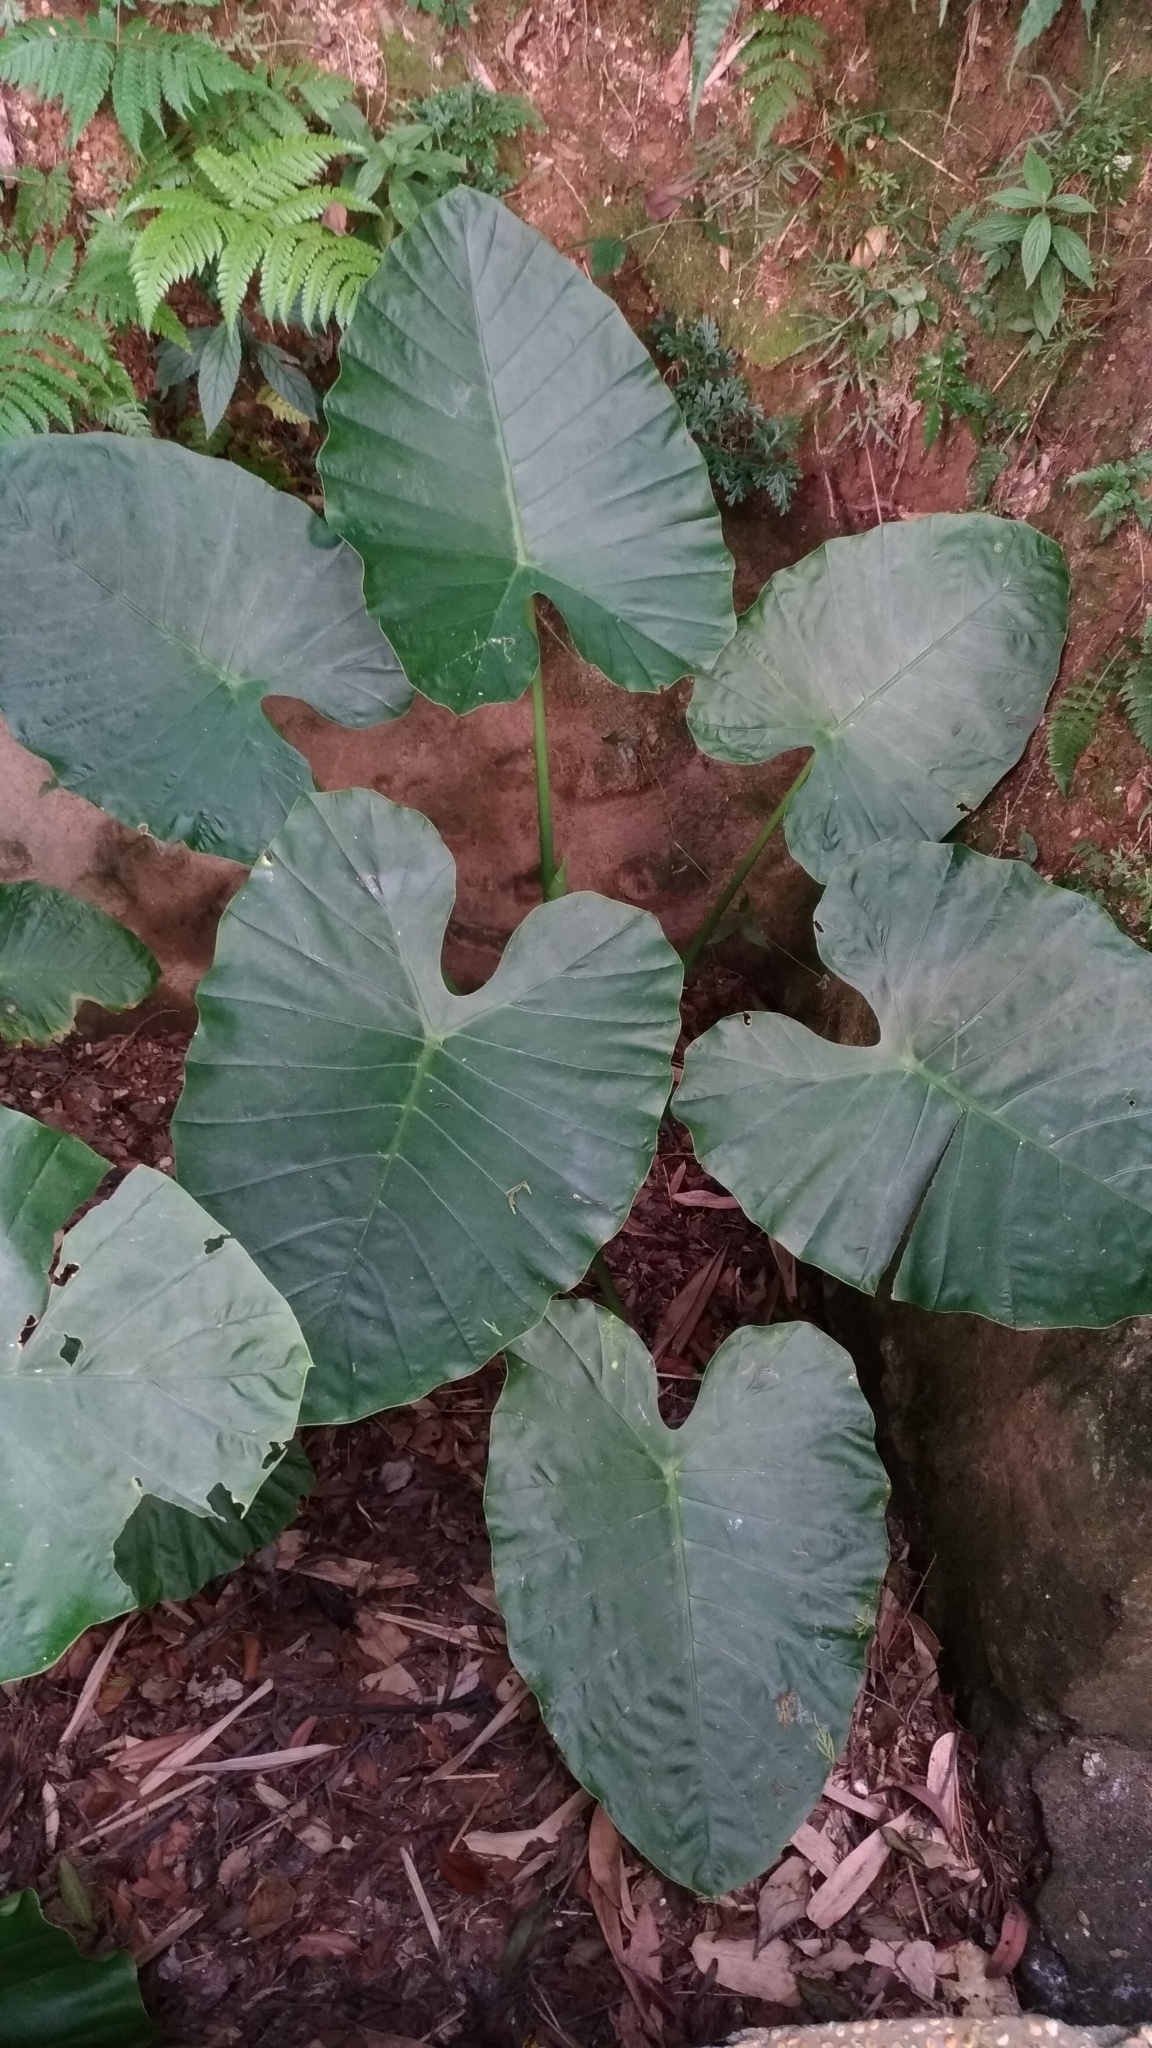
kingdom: Plantae
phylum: Tracheophyta
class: Liliopsida
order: Alismatales
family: Araceae
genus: Alocasia
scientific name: Alocasia odora
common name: Asian taro
